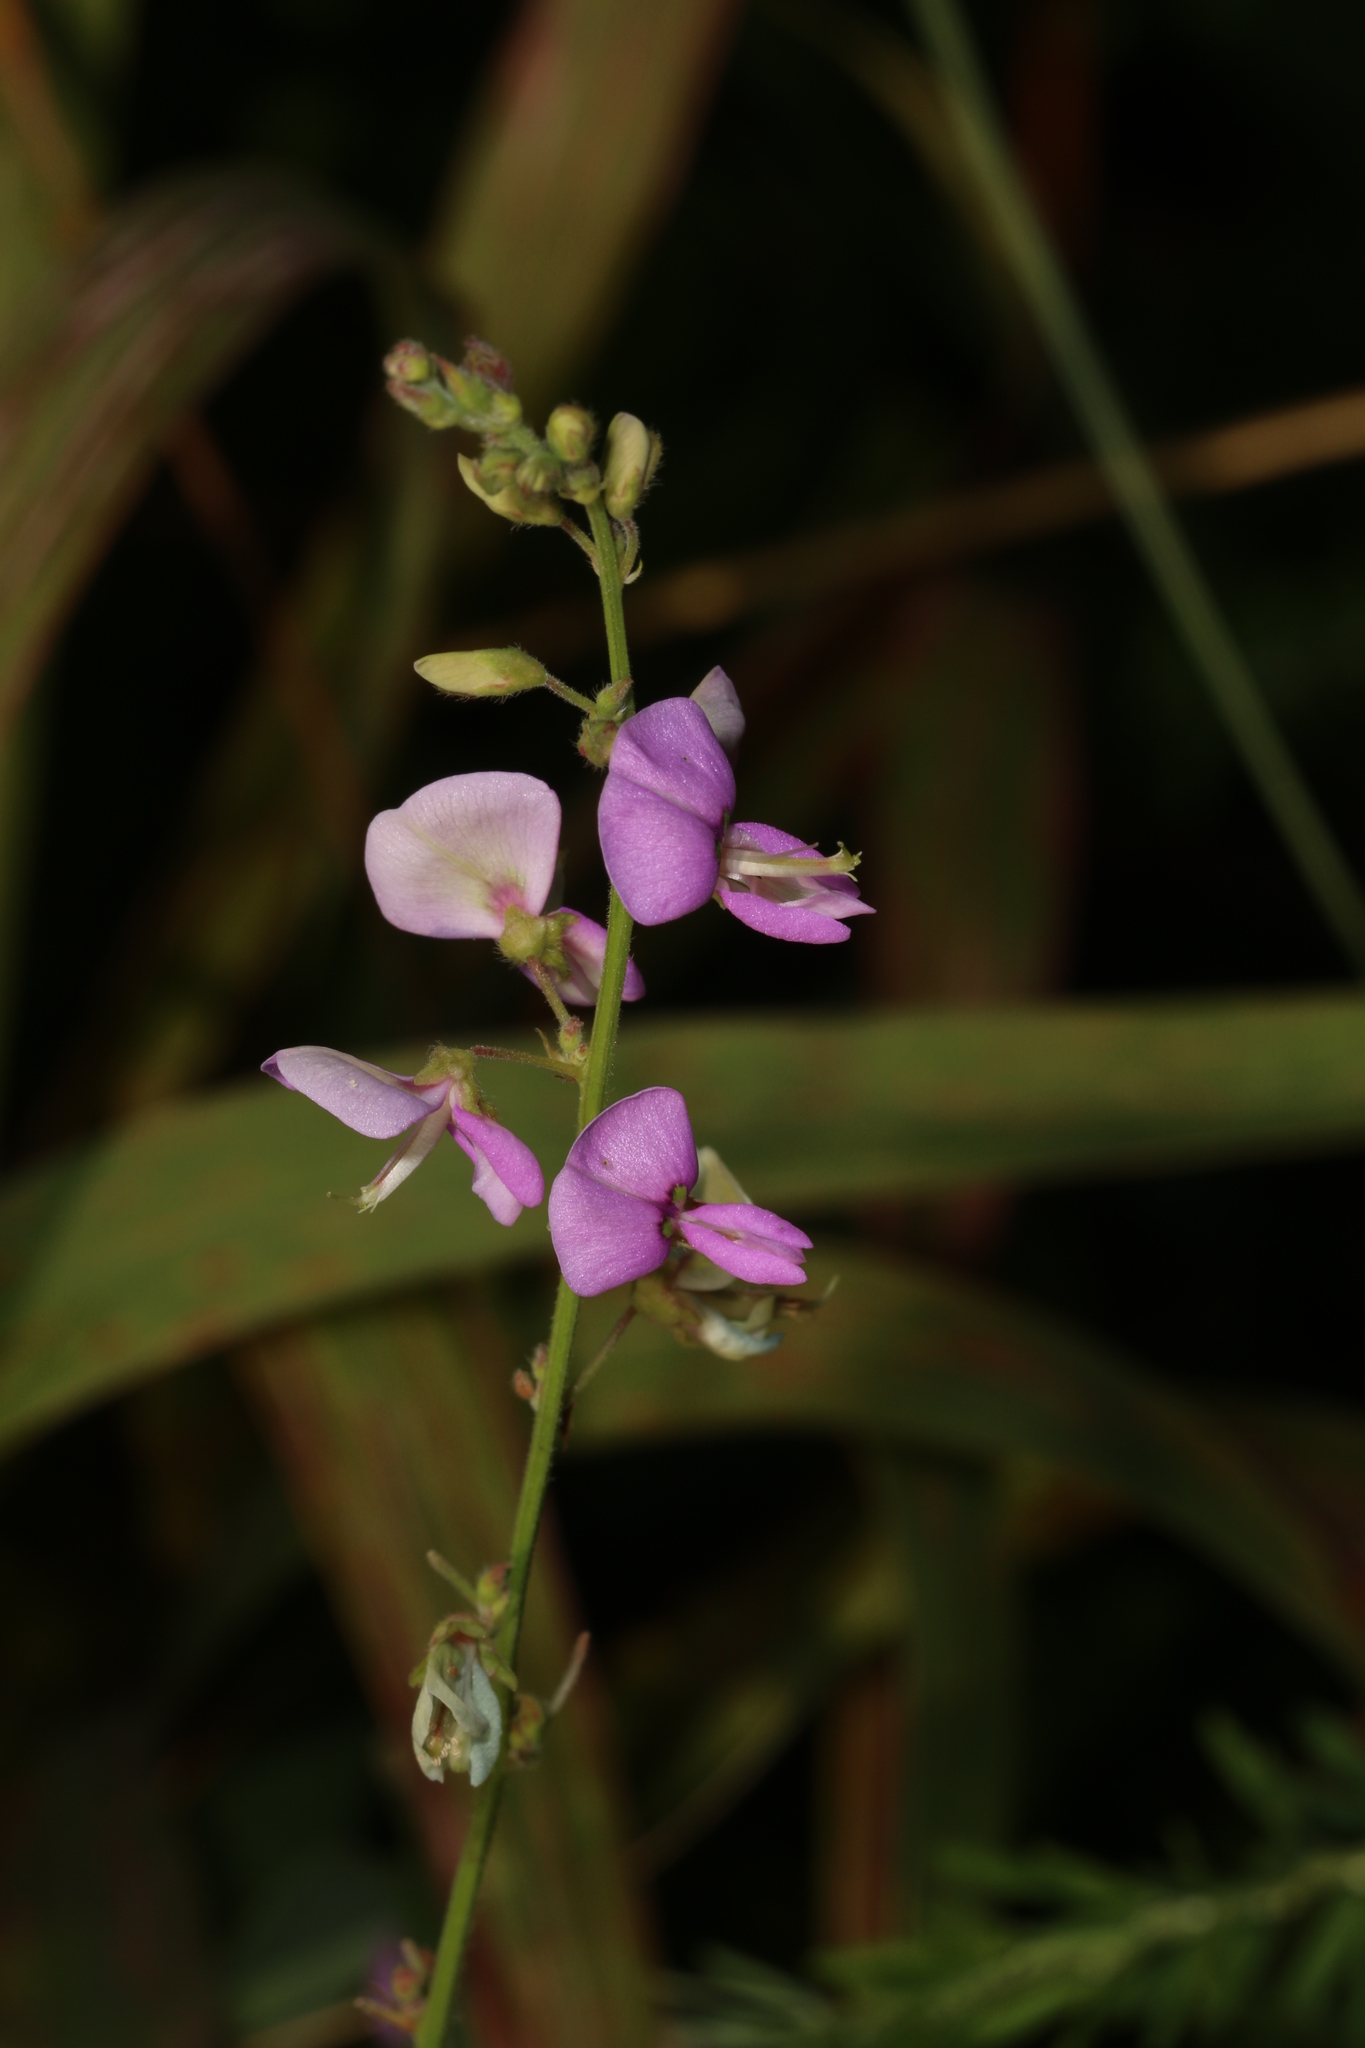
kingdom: Plantae
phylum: Tracheophyta
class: Magnoliopsida
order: Fabales
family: Fabaceae
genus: Desmodium
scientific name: Desmodium
